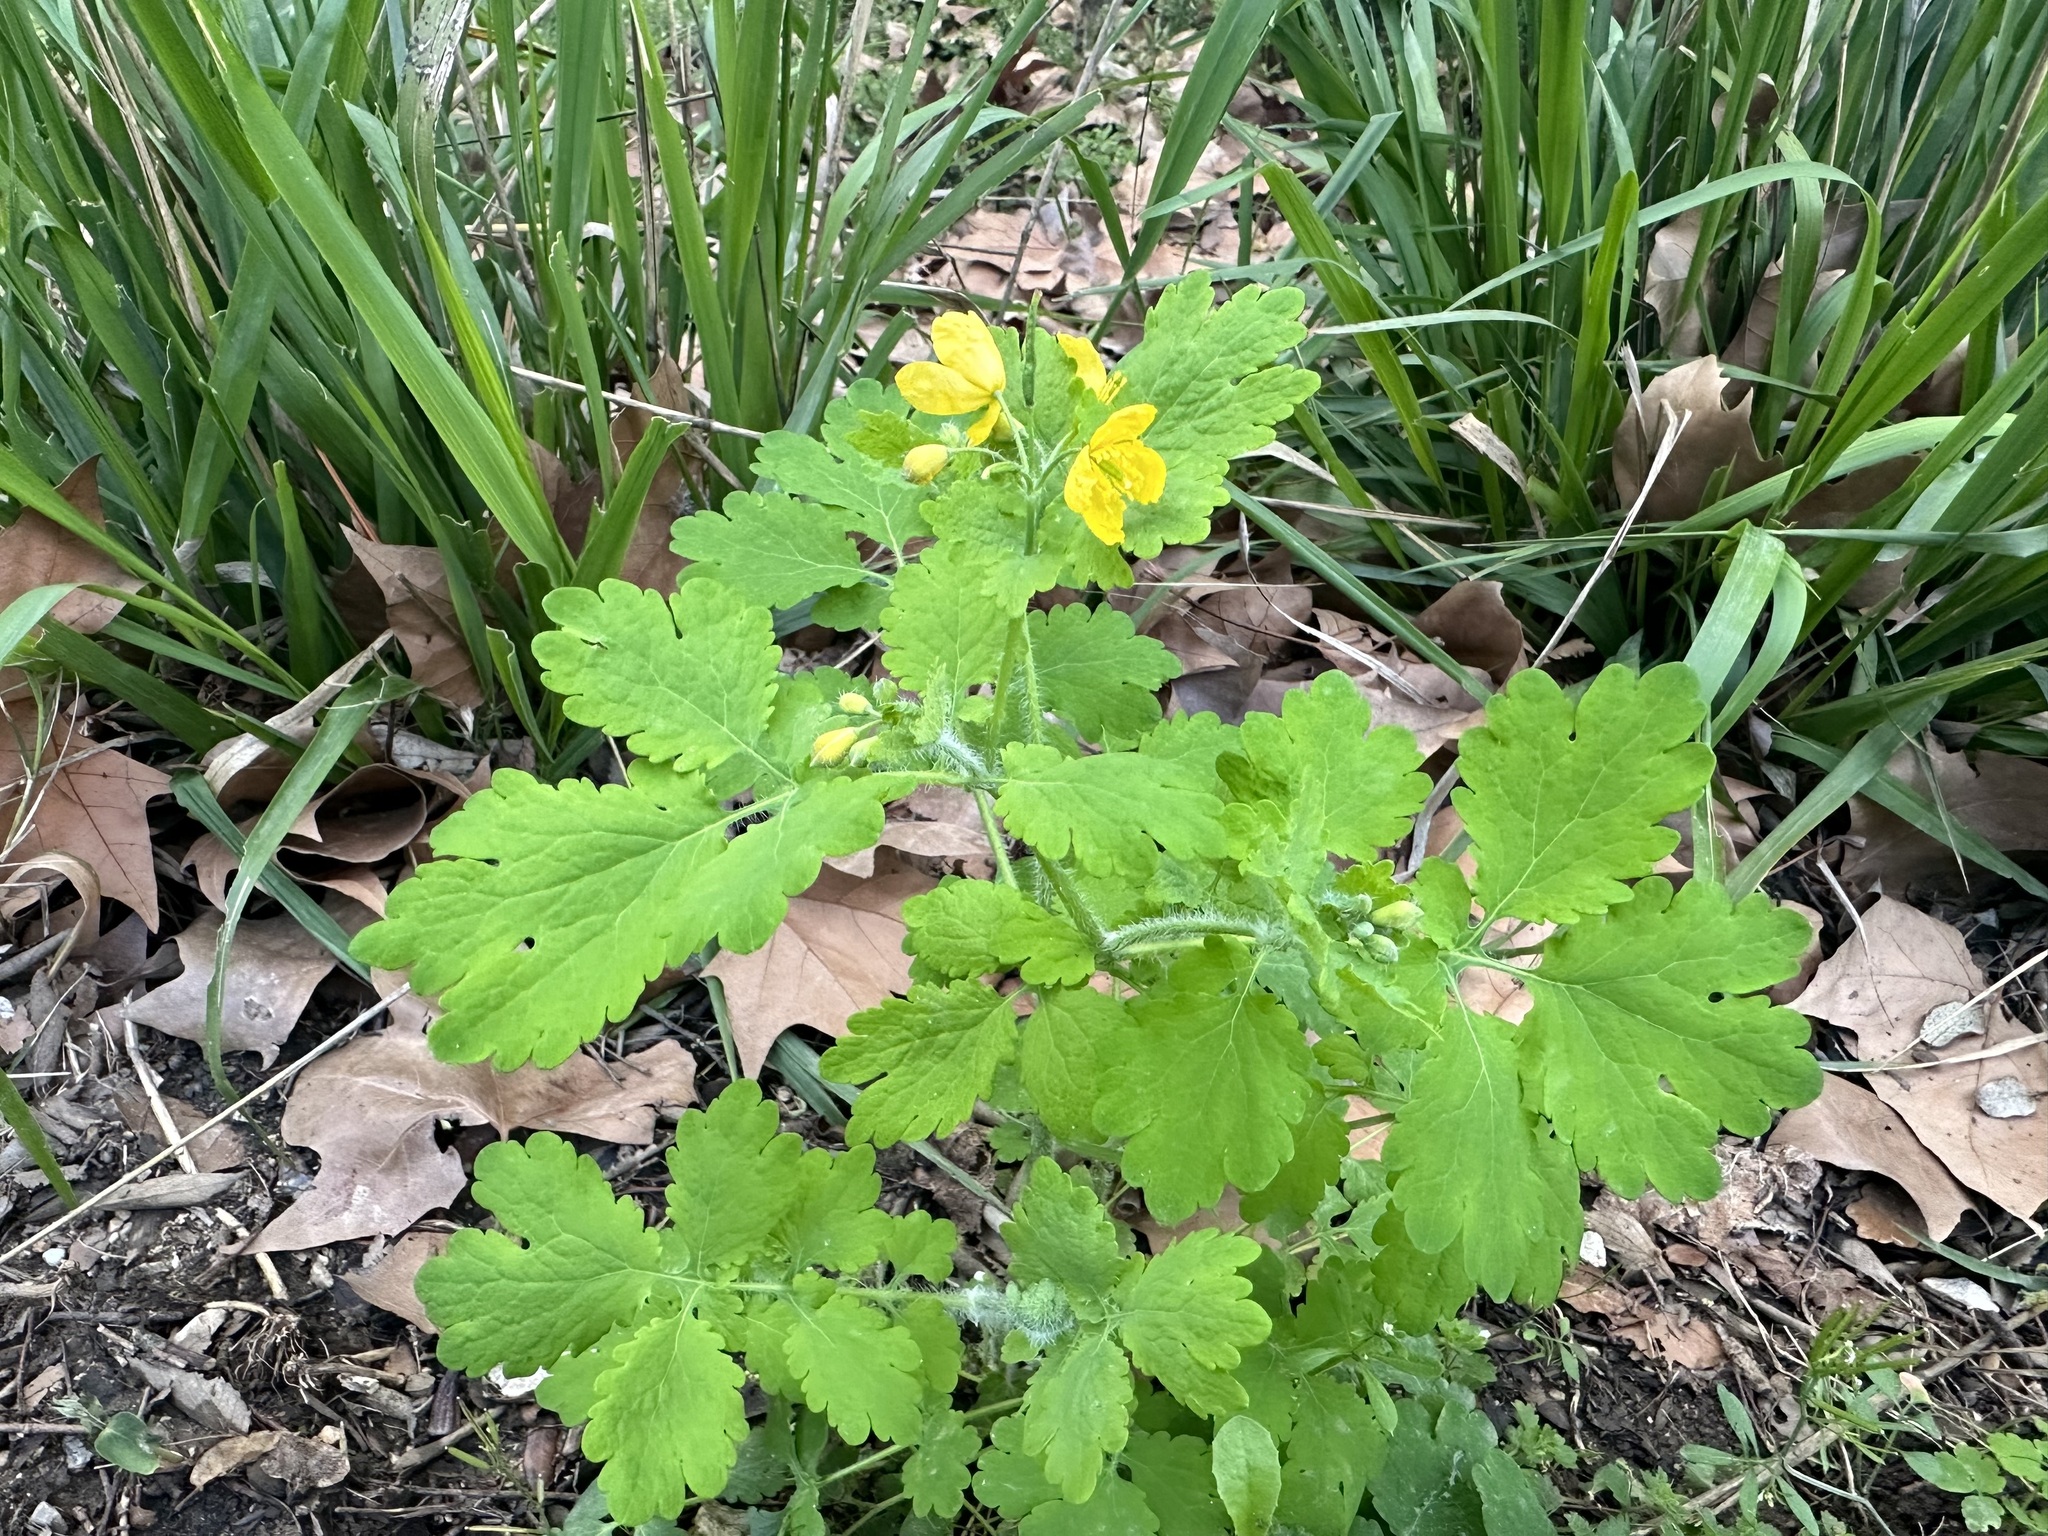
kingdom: Plantae
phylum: Tracheophyta
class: Magnoliopsida
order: Ranunculales
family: Papaveraceae
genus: Chelidonium
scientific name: Chelidonium majus
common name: Greater celandine
